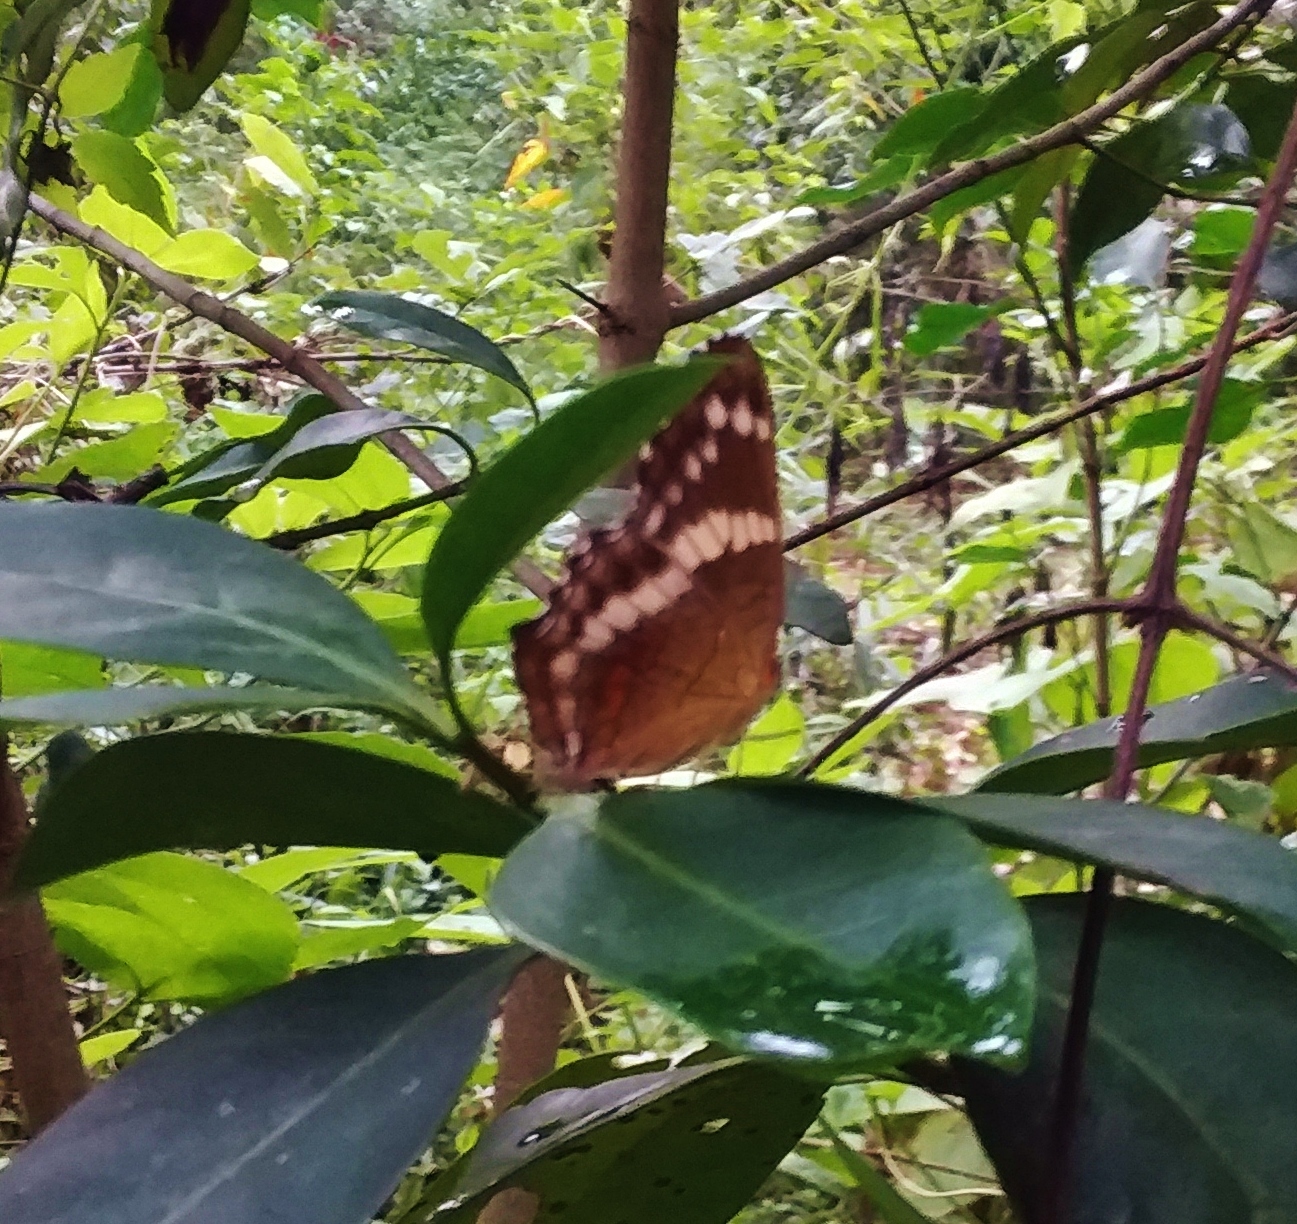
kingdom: Animalia
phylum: Arthropoda
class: Insecta
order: Lepidoptera
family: Nymphalidae
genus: Anartia
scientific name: Anartia fatima
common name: Banded peacock
